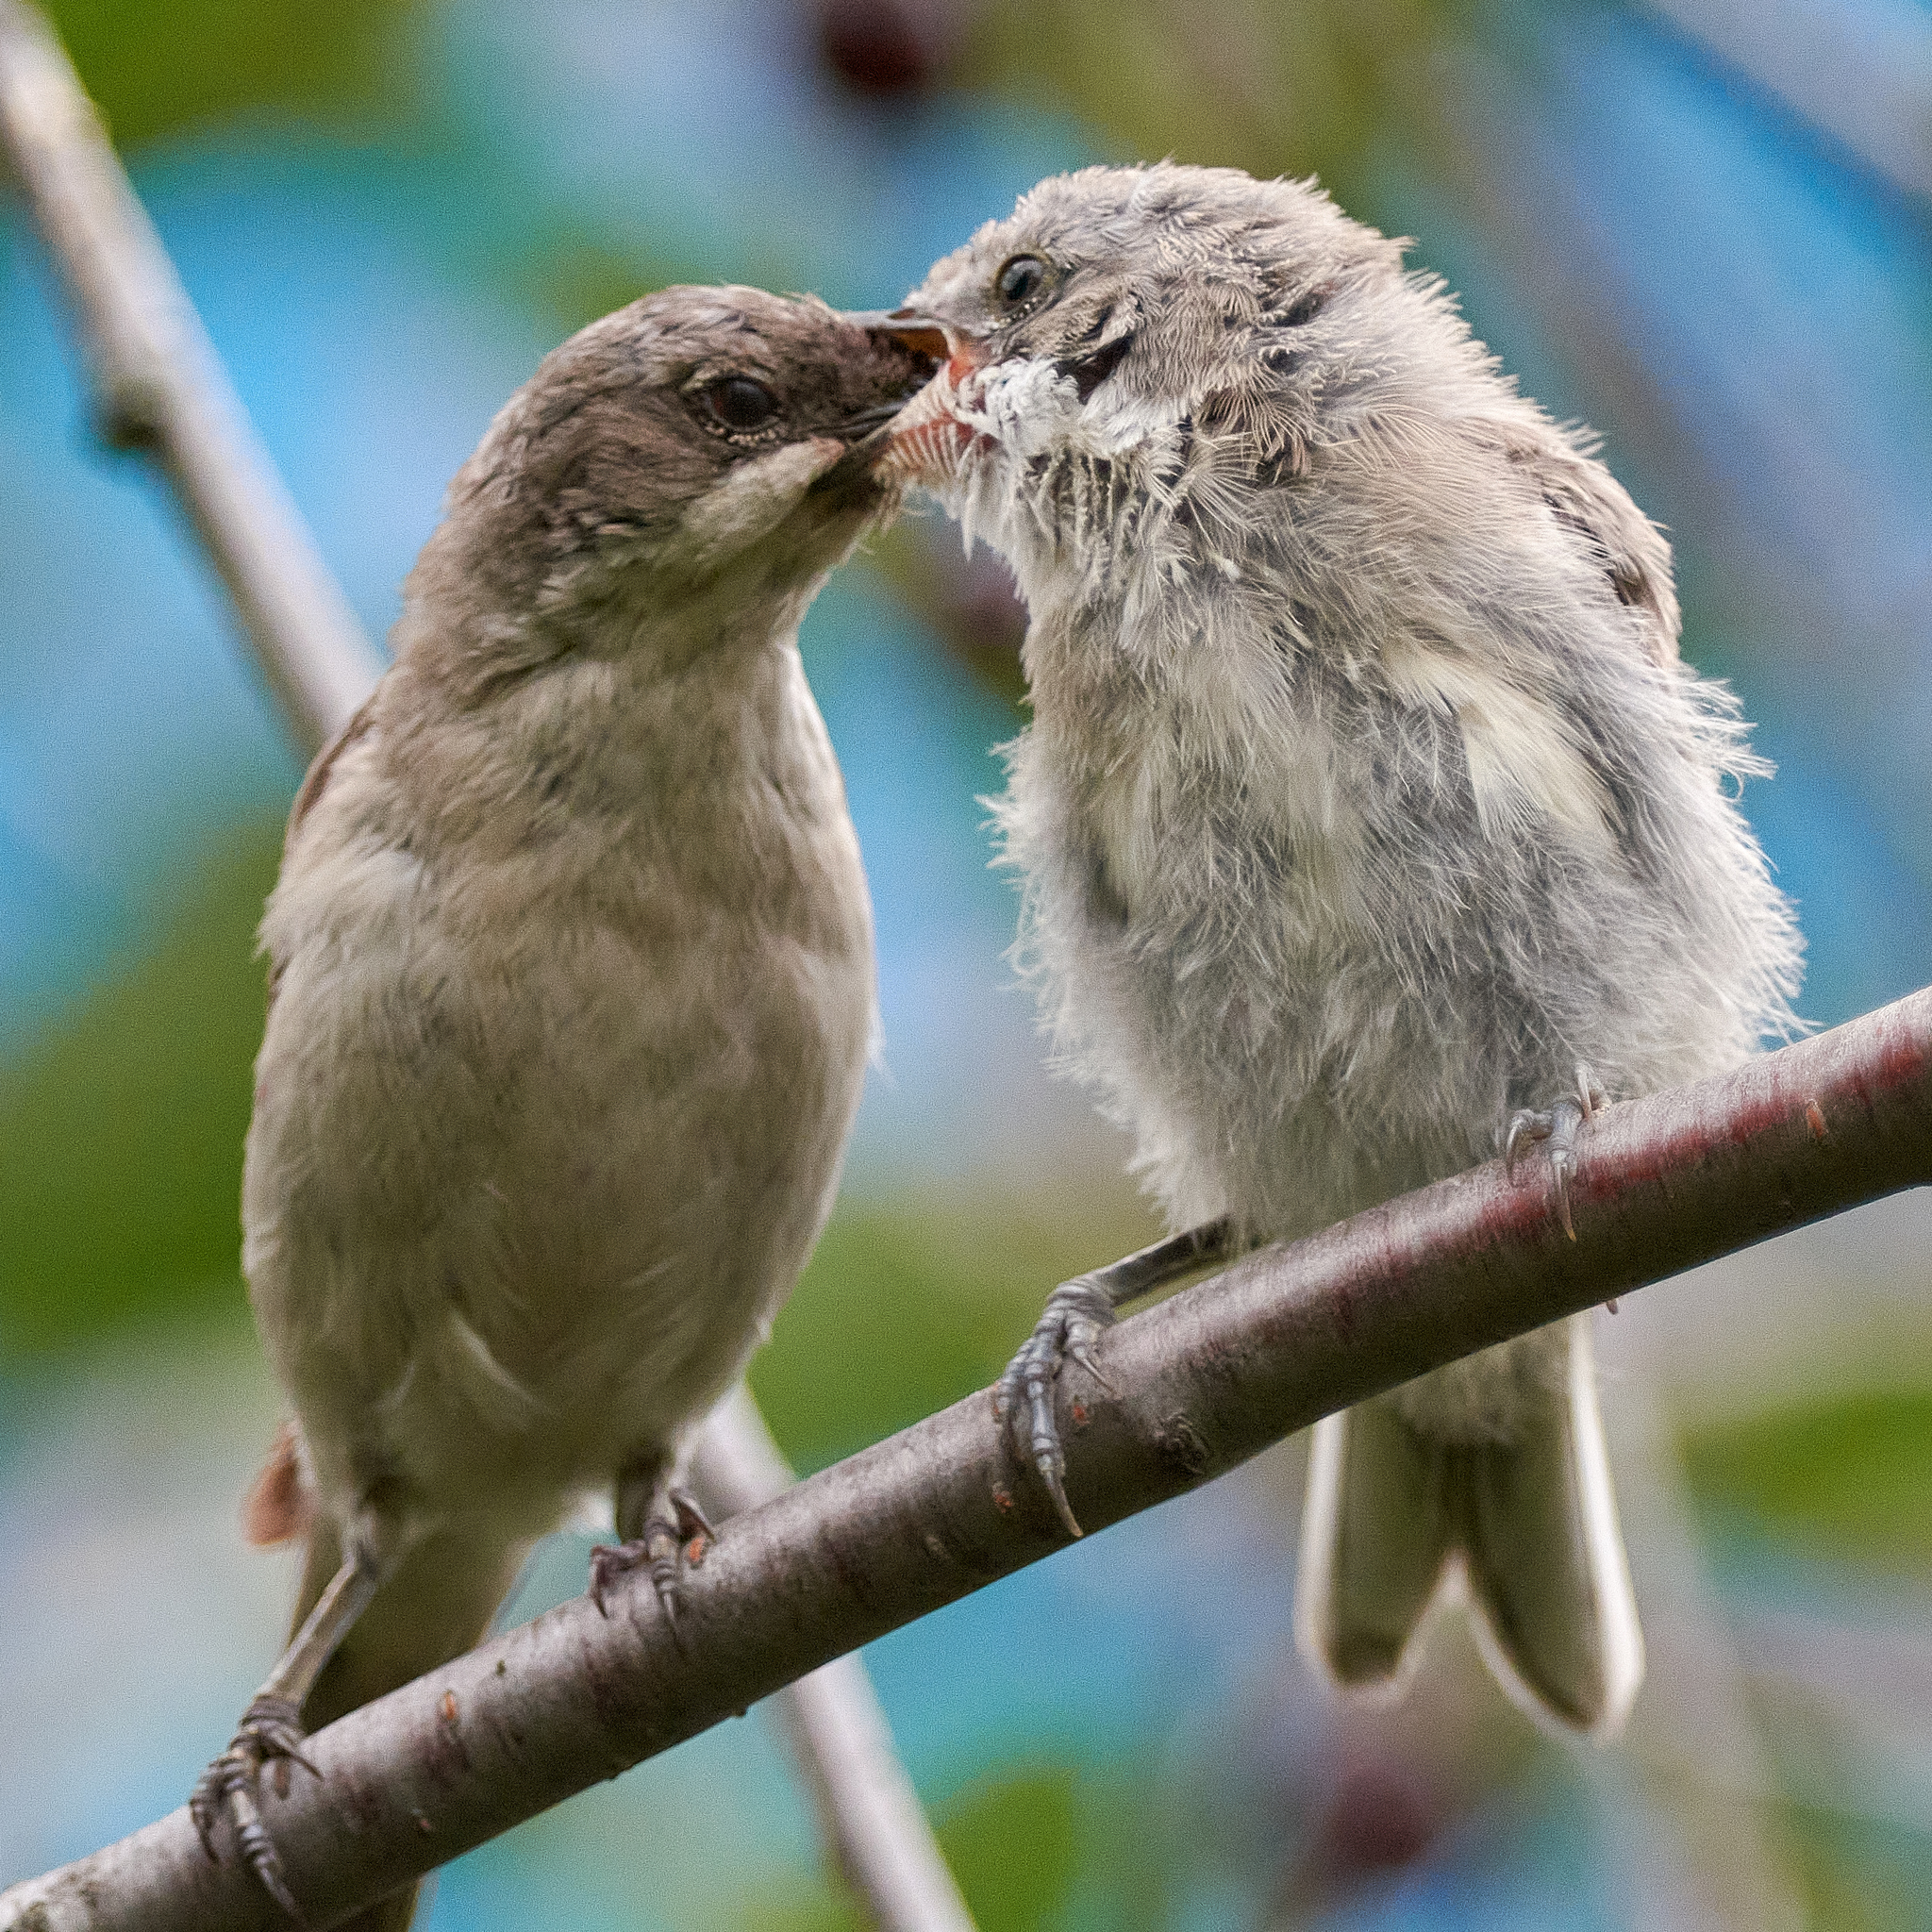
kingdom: Animalia
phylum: Chordata
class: Aves
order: Passeriformes
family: Sylviidae
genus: Sylvia
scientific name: Sylvia curruca
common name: Lesser whitethroat
